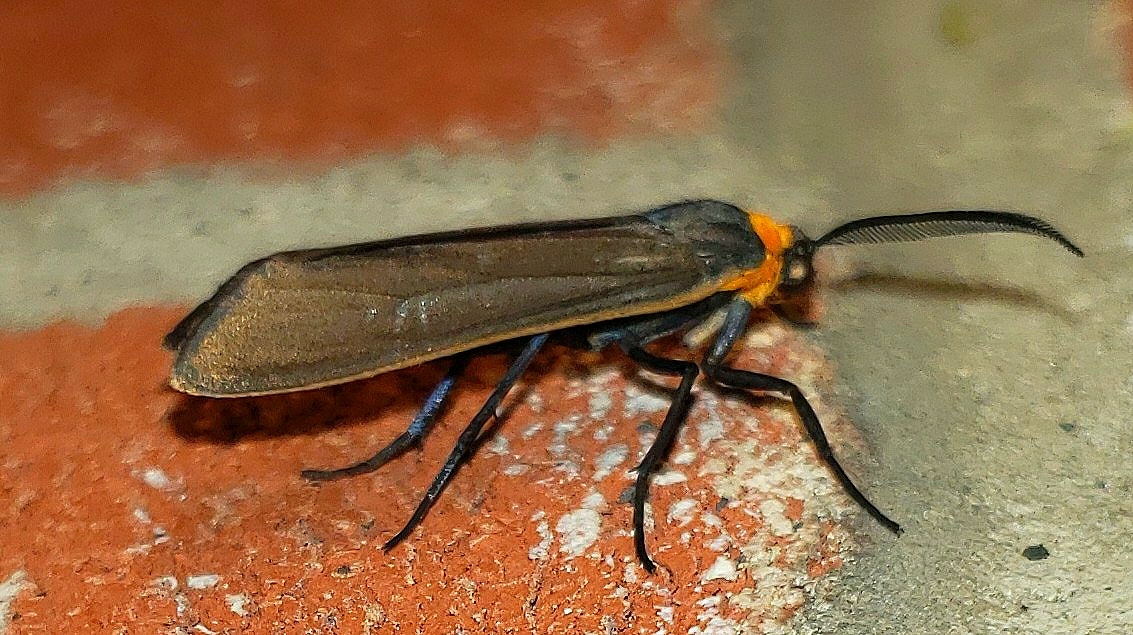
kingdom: Animalia
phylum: Arthropoda
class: Insecta
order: Lepidoptera
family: Erebidae
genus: Cisseps
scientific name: Cisseps fulvicollis
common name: Yellow-collared scape moth
